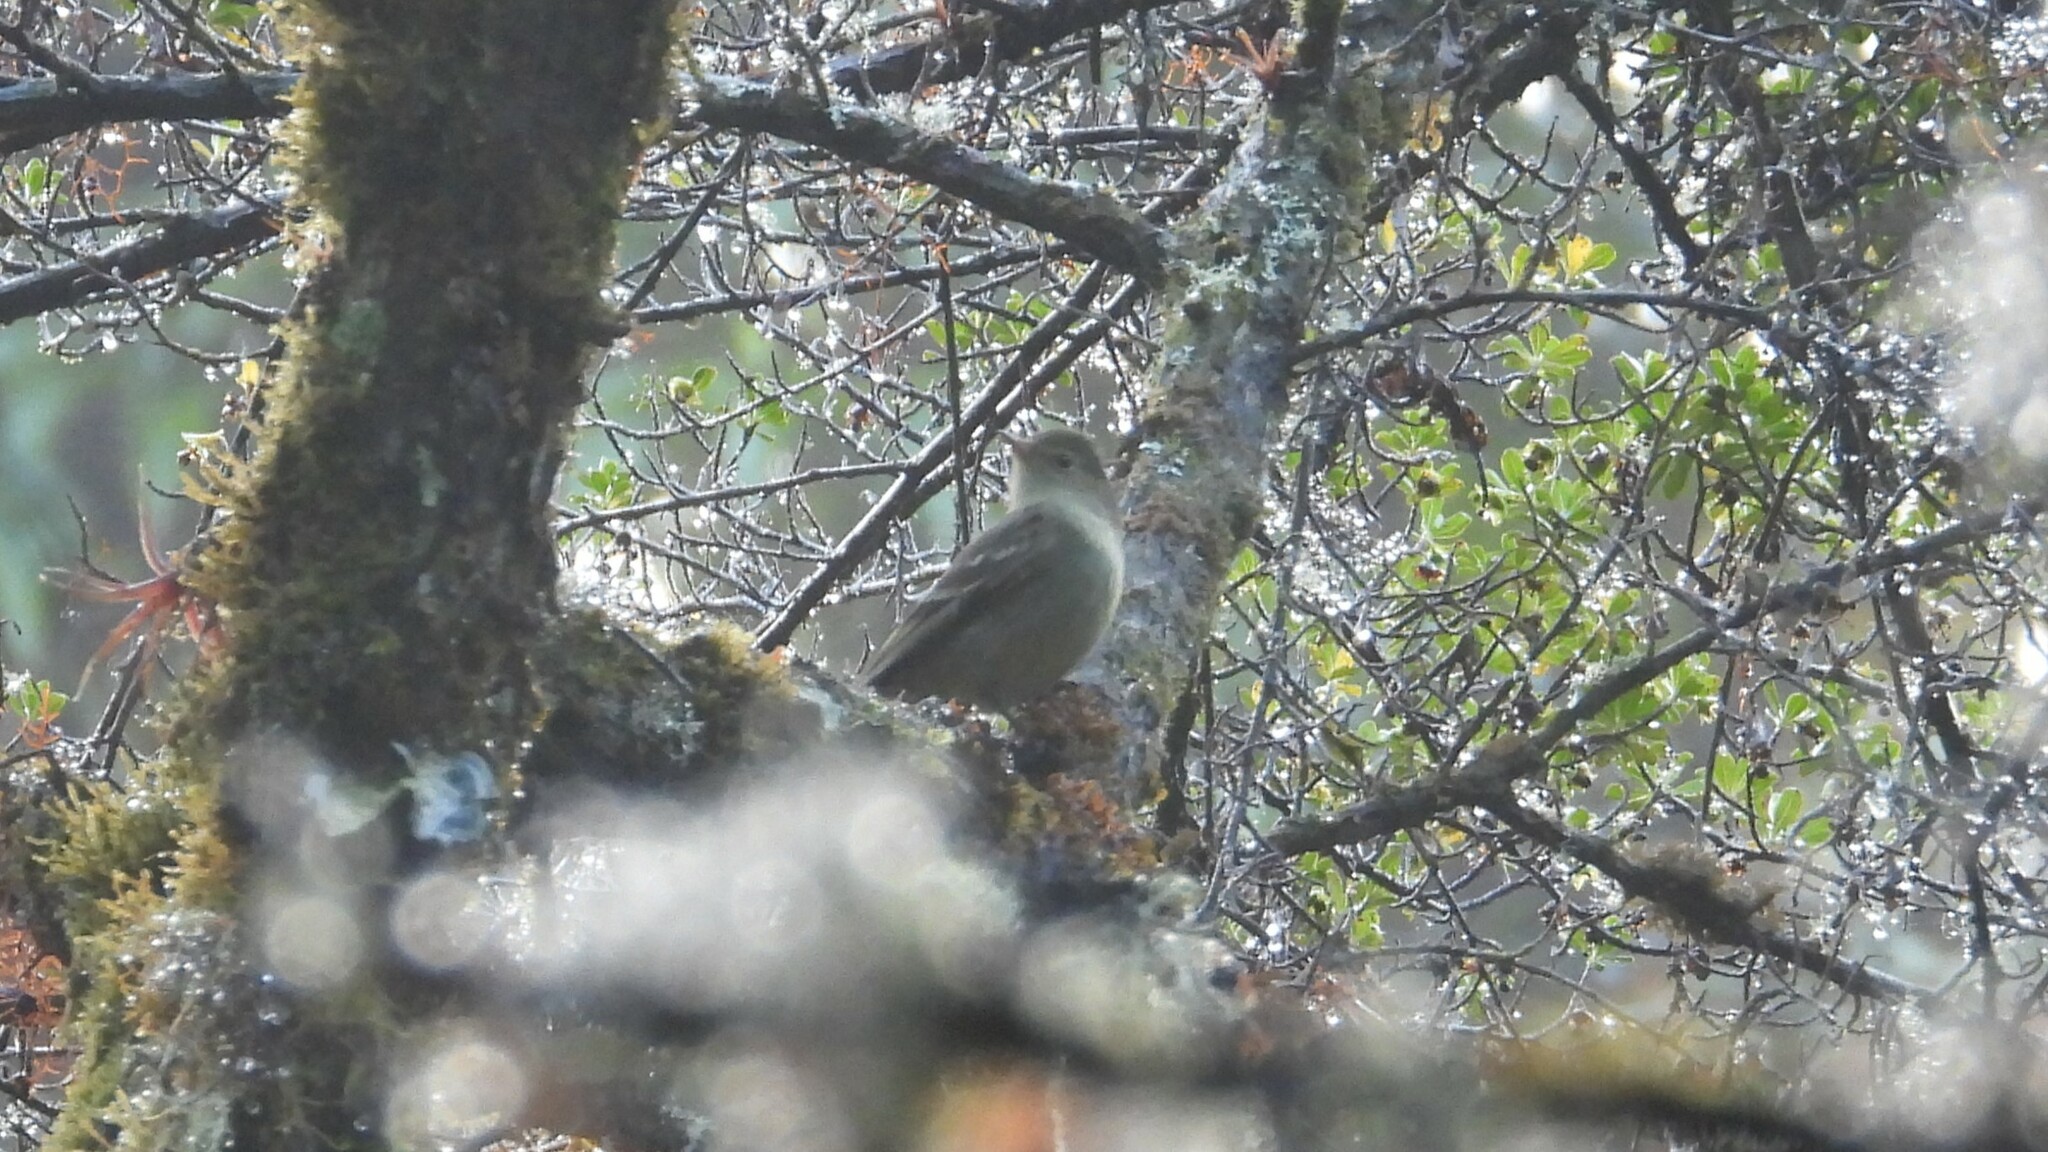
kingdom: Animalia
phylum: Chordata
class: Aves
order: Passeriformes
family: Tyrannidae
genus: Elaenia
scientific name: Elaenia frantzii
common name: Mountain elaenia
